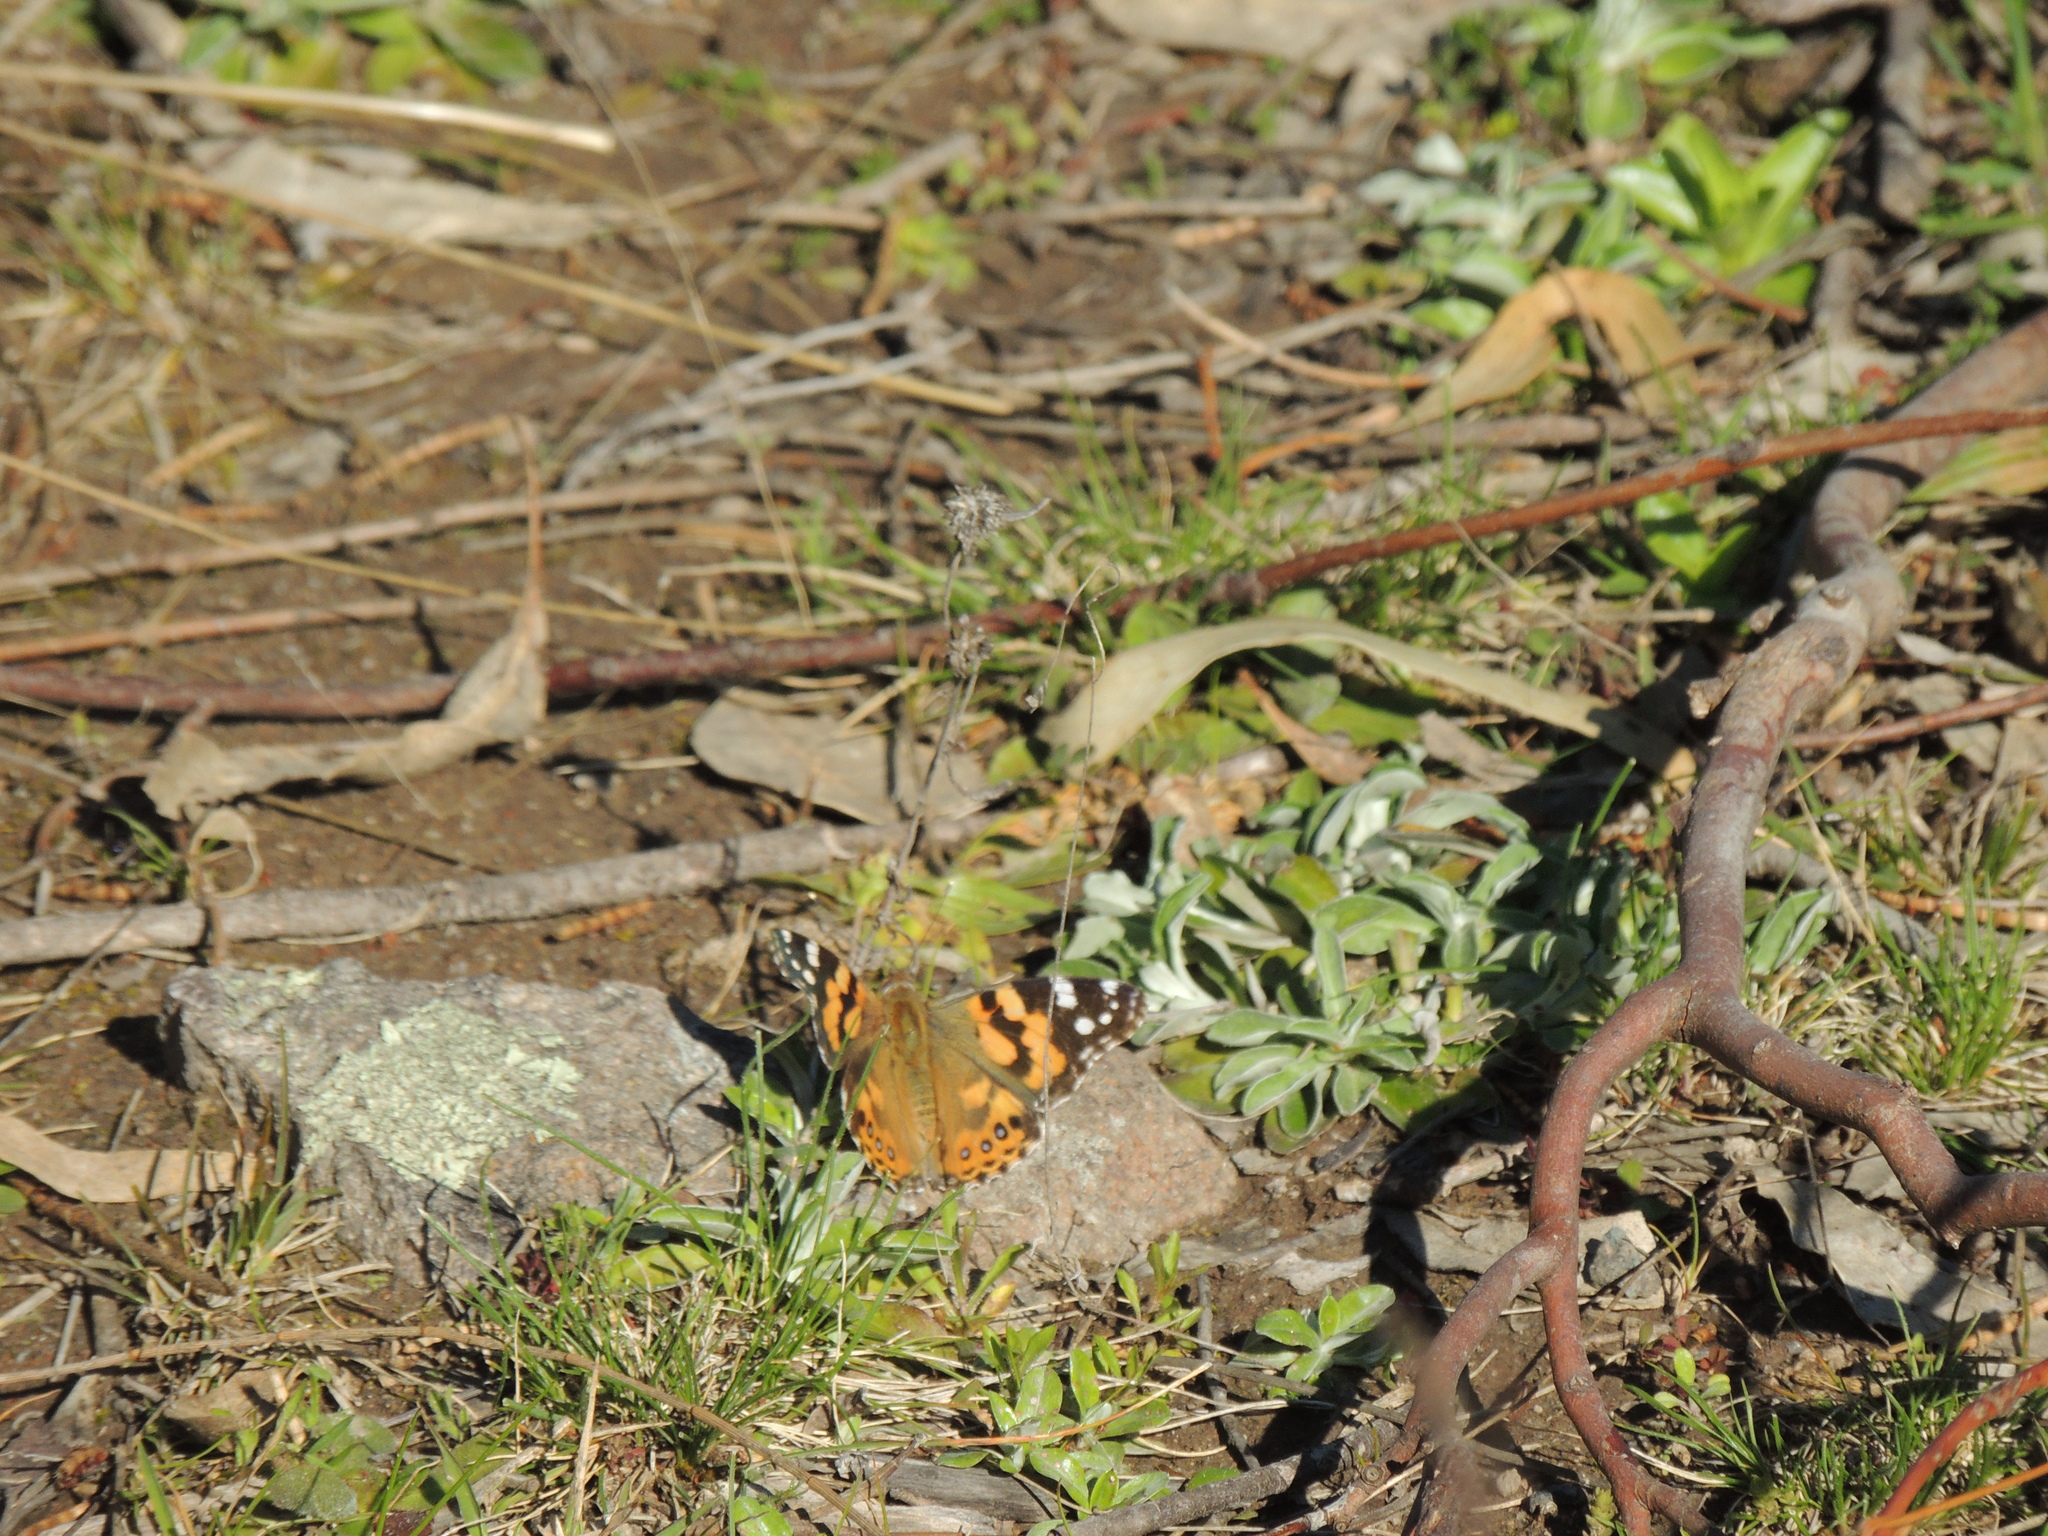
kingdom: Animalia
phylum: Arthropoda
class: Insecta
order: Lepidoptera
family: Nymphalidae
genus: Vanessa
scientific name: Vanessa kershawi
